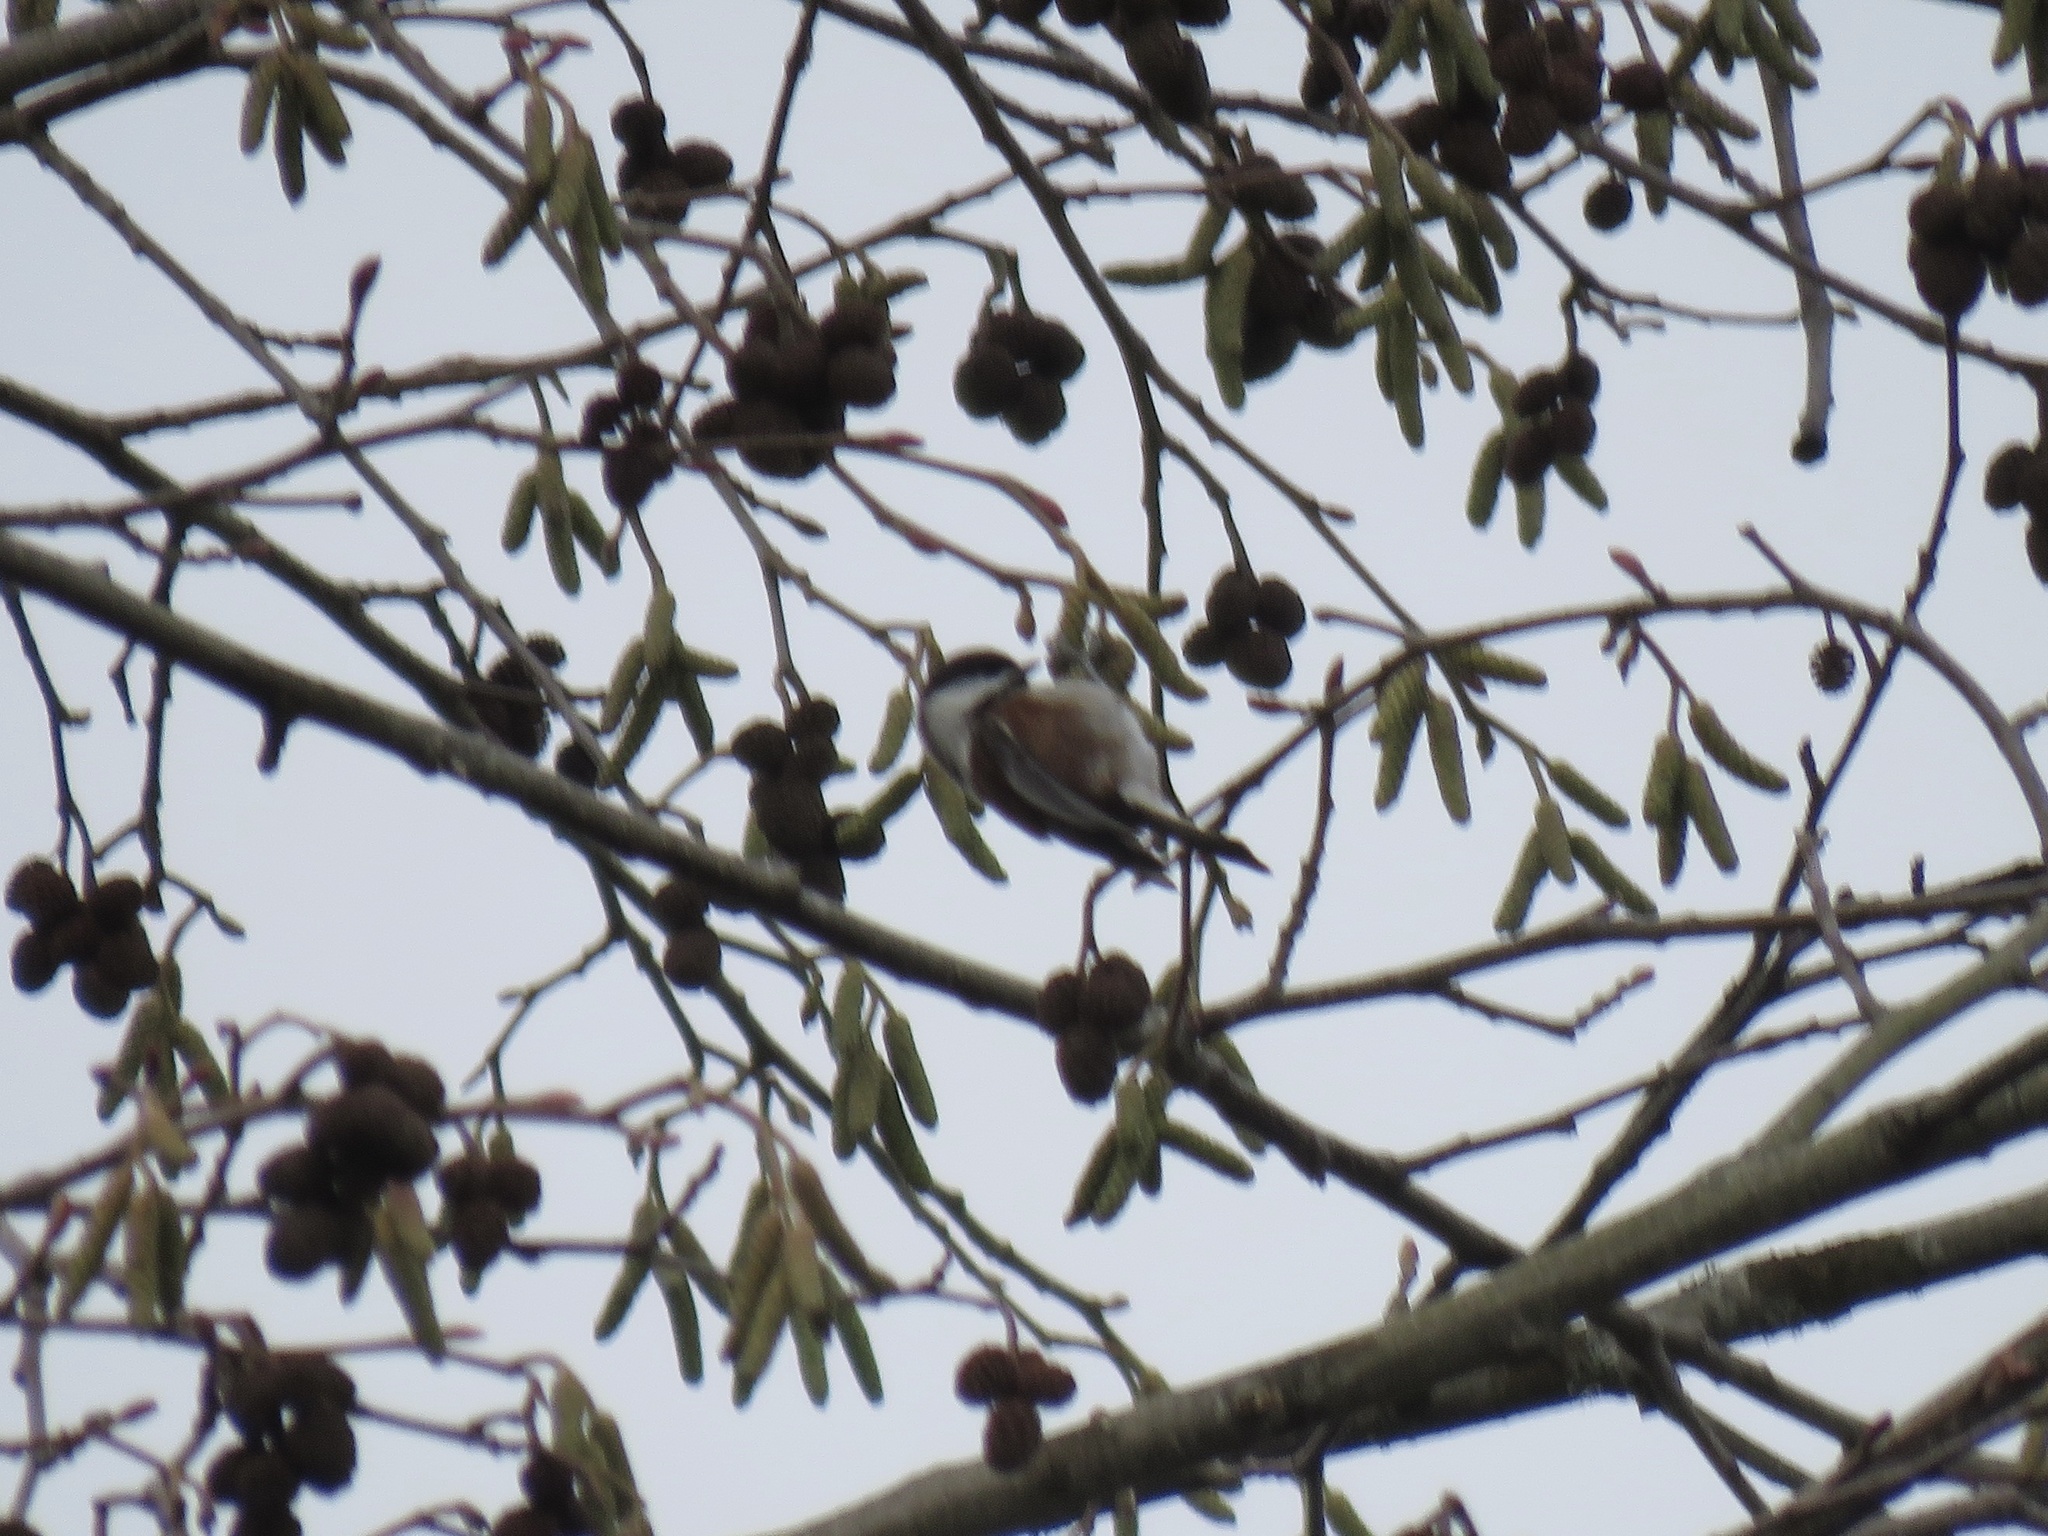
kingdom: Animalia
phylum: Chordata
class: Aves
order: Passeriformes
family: Paridae
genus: Poecile
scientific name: Poecile rufescens
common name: Chestnut-backed chickadee
